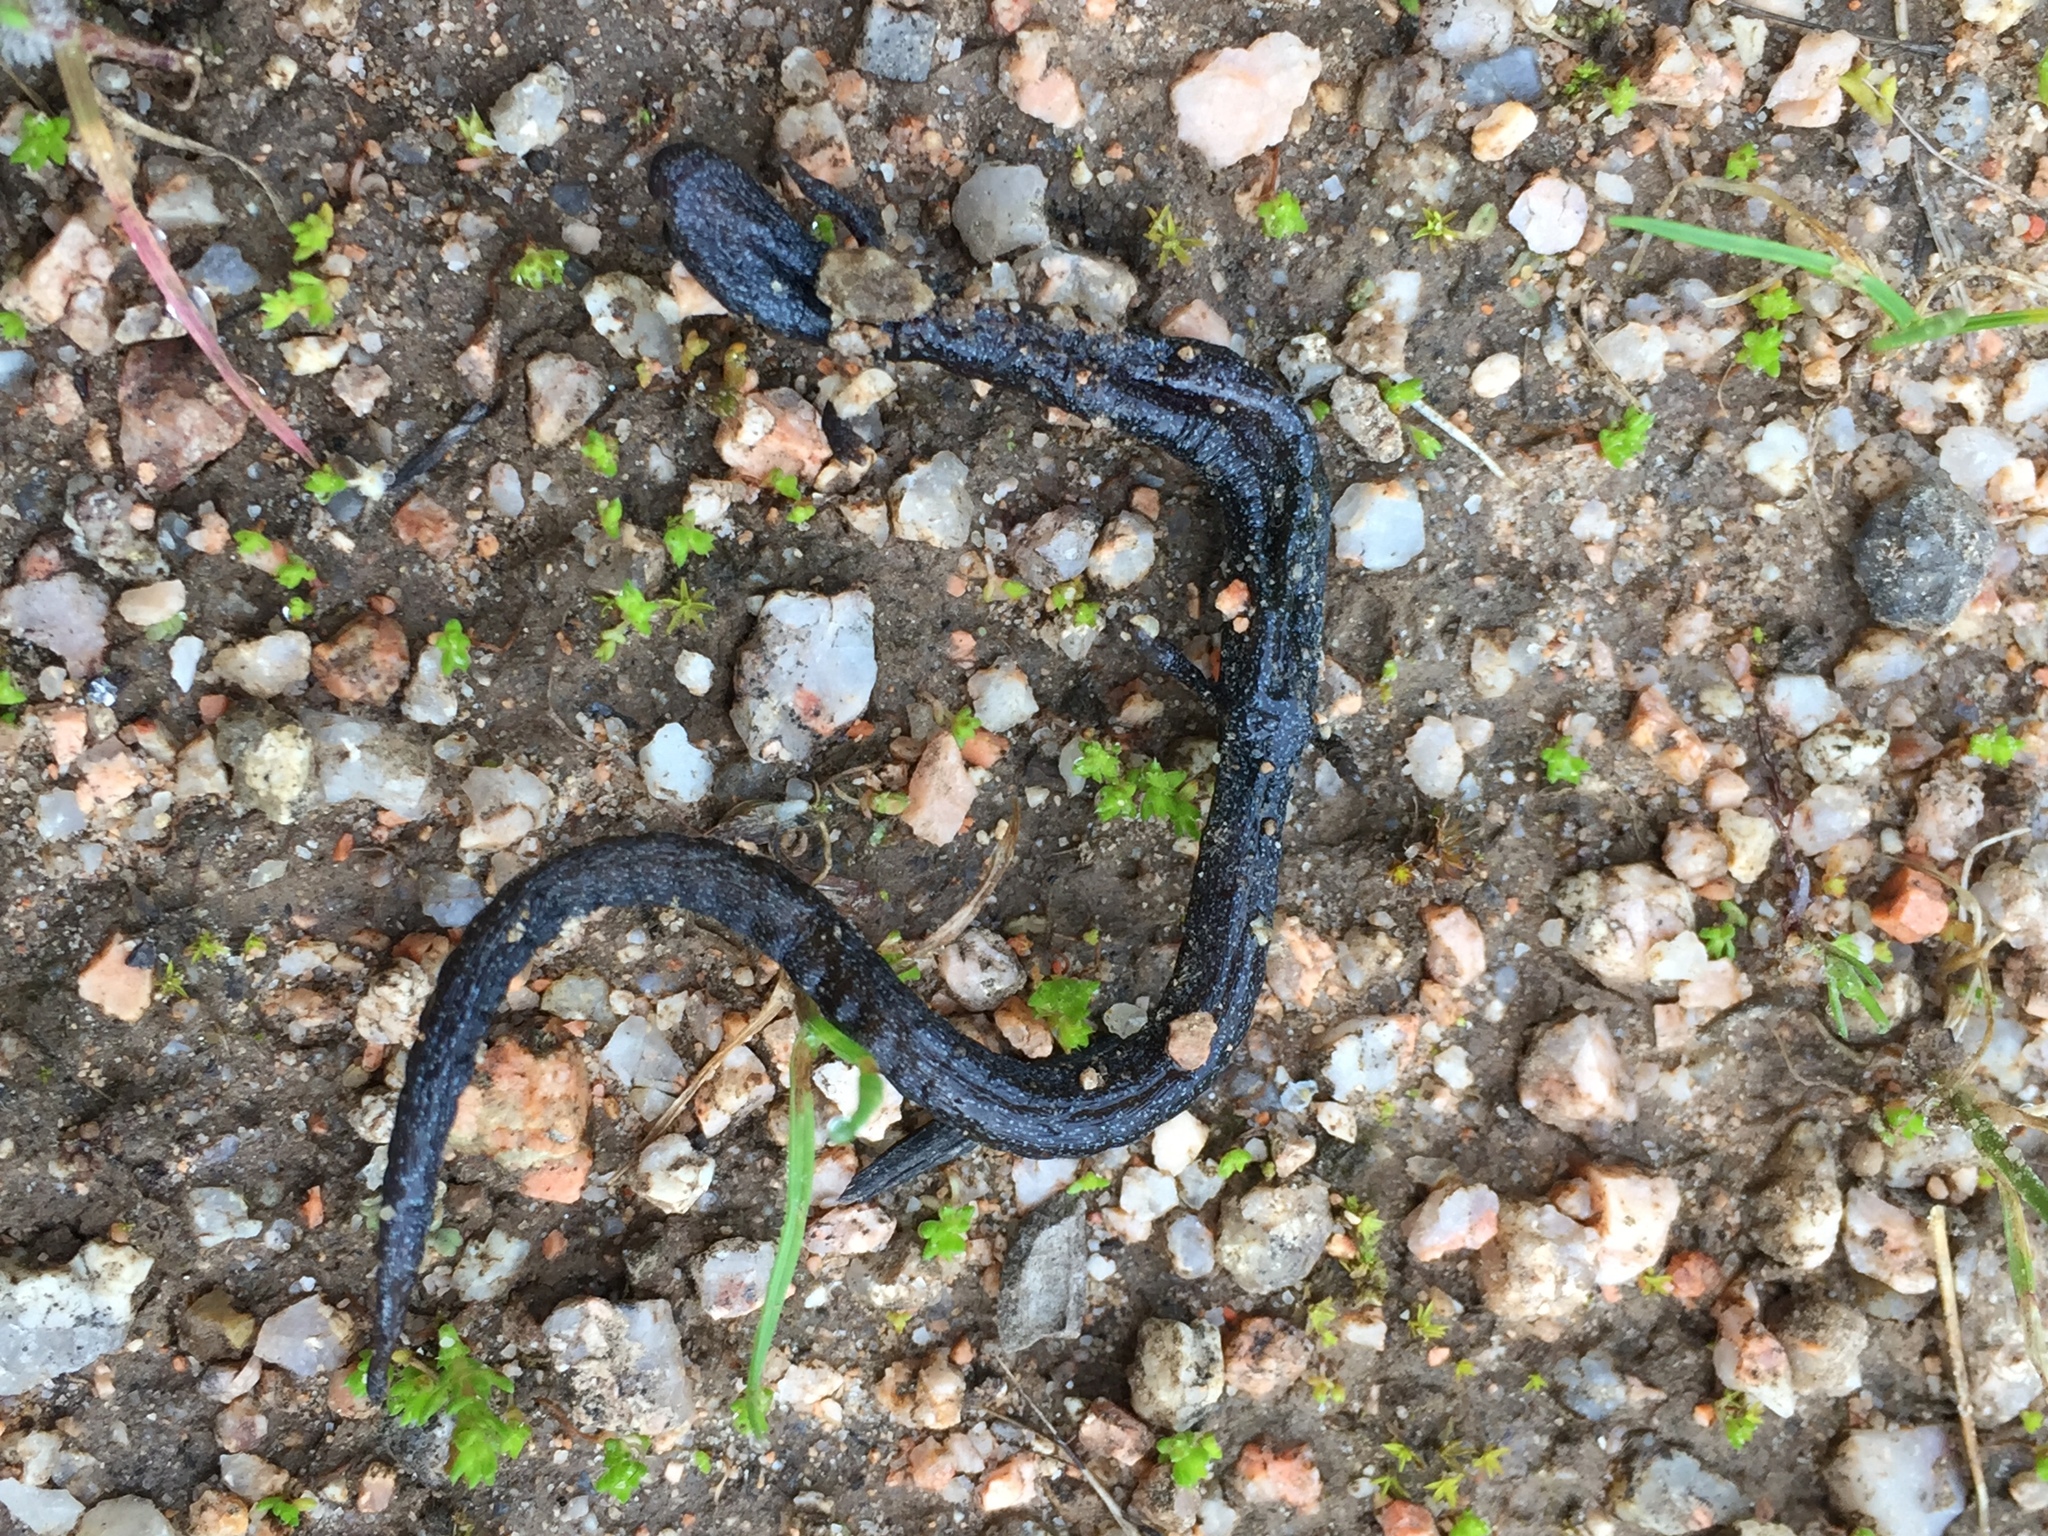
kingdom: Animalia
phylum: Chordata
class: Amphibia
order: Caudata
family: Plethodontidae
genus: Batrachoseps
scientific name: Batrachoseps gavilanensis
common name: Gabilan mountains slender salamander
